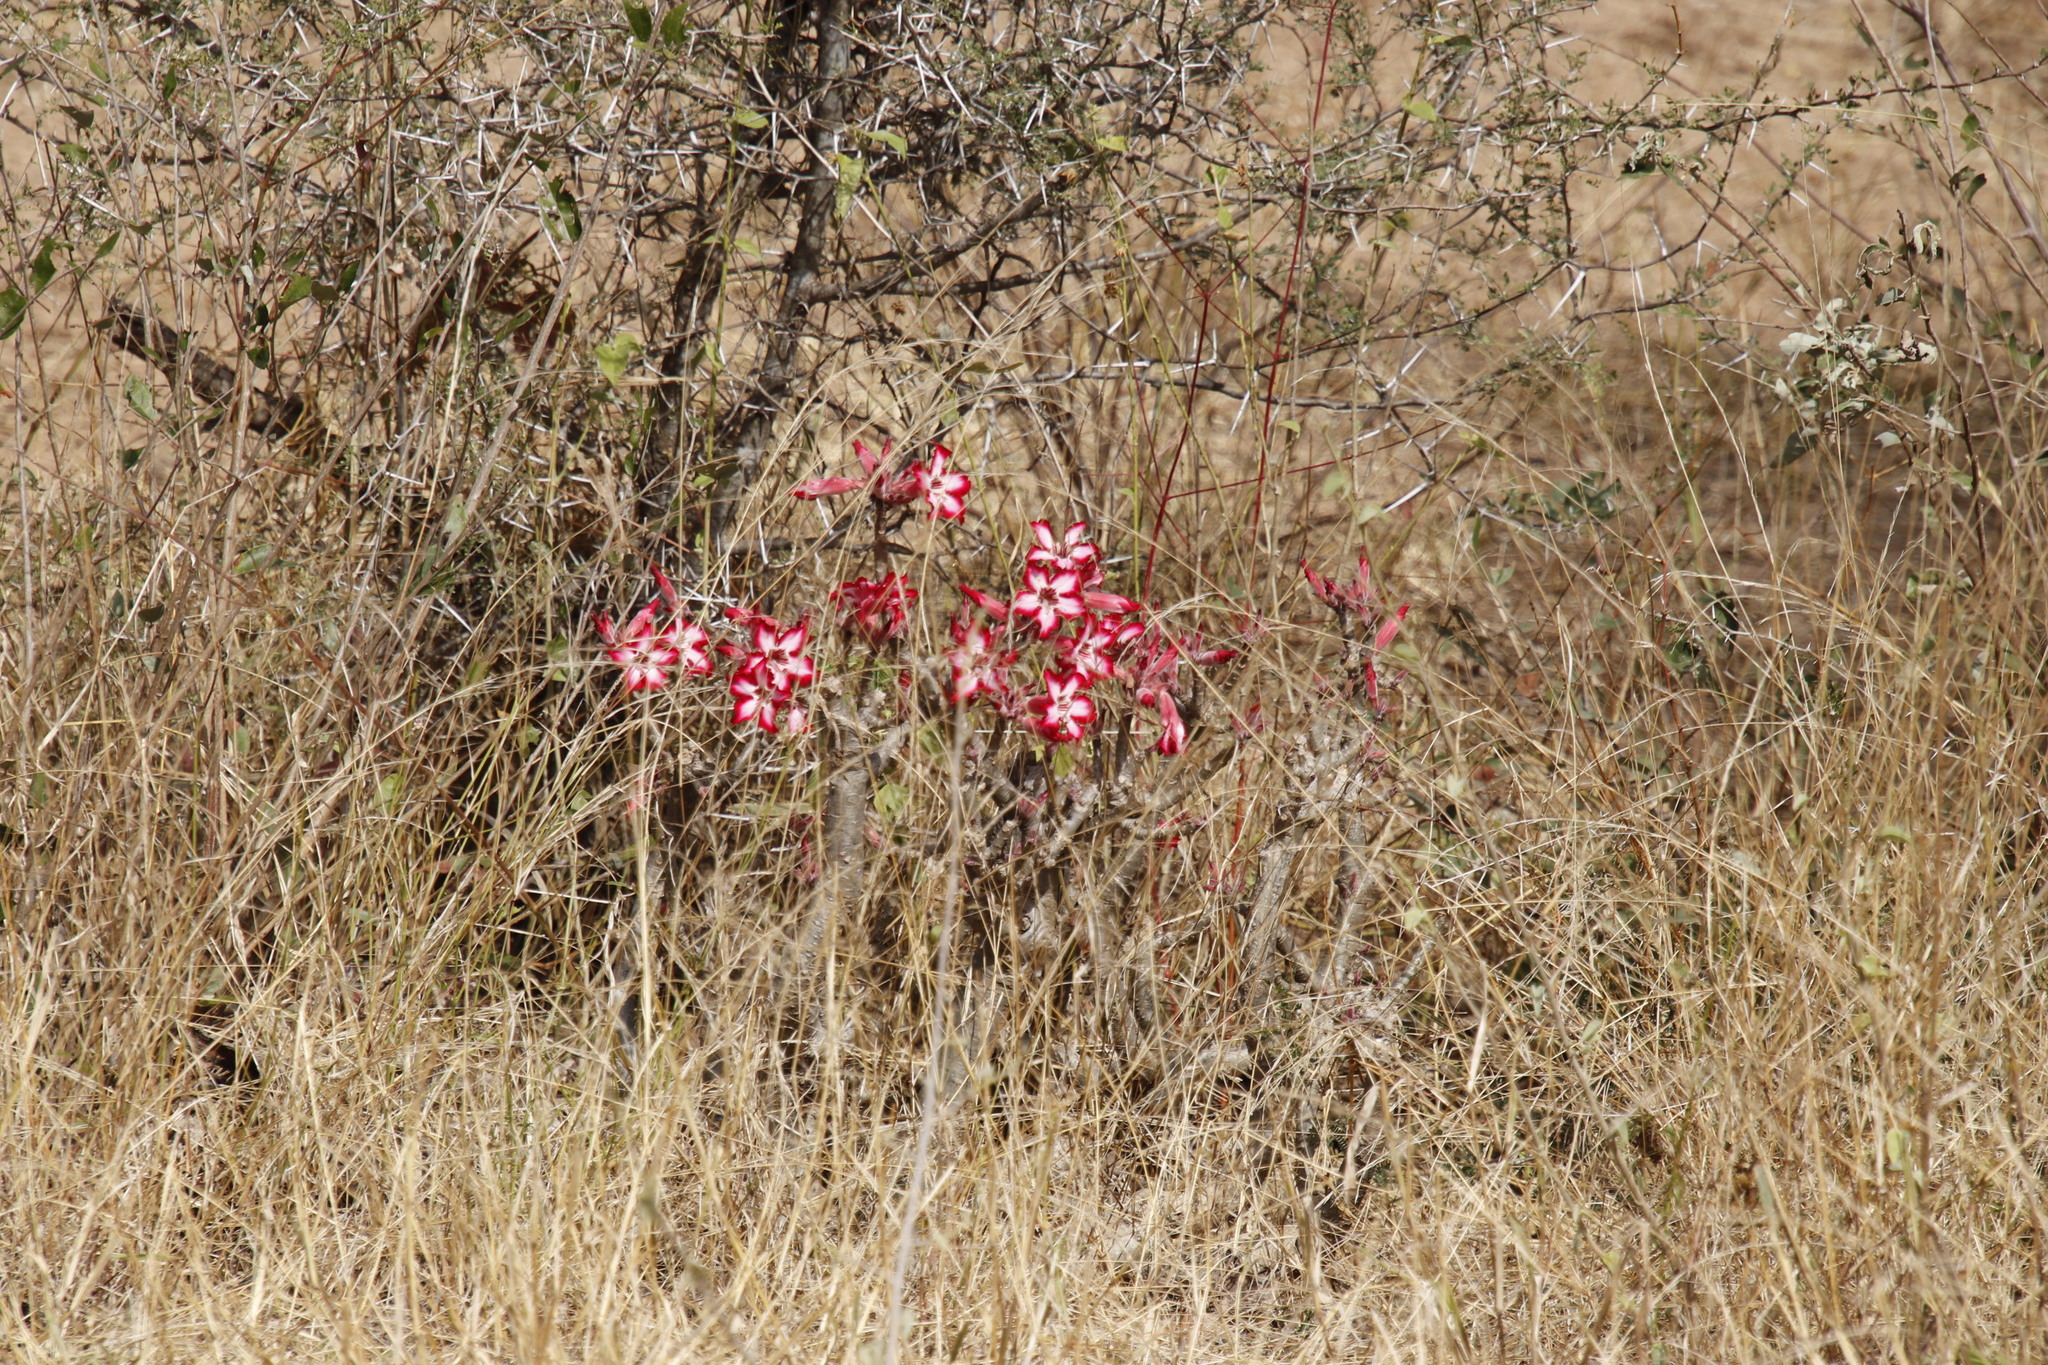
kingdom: Plantae
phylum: Tracheophyta
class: Magnoliopsida
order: Gentianales
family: Apocynaceae
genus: Adenium
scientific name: Adenium obesum
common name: Desert-rose
